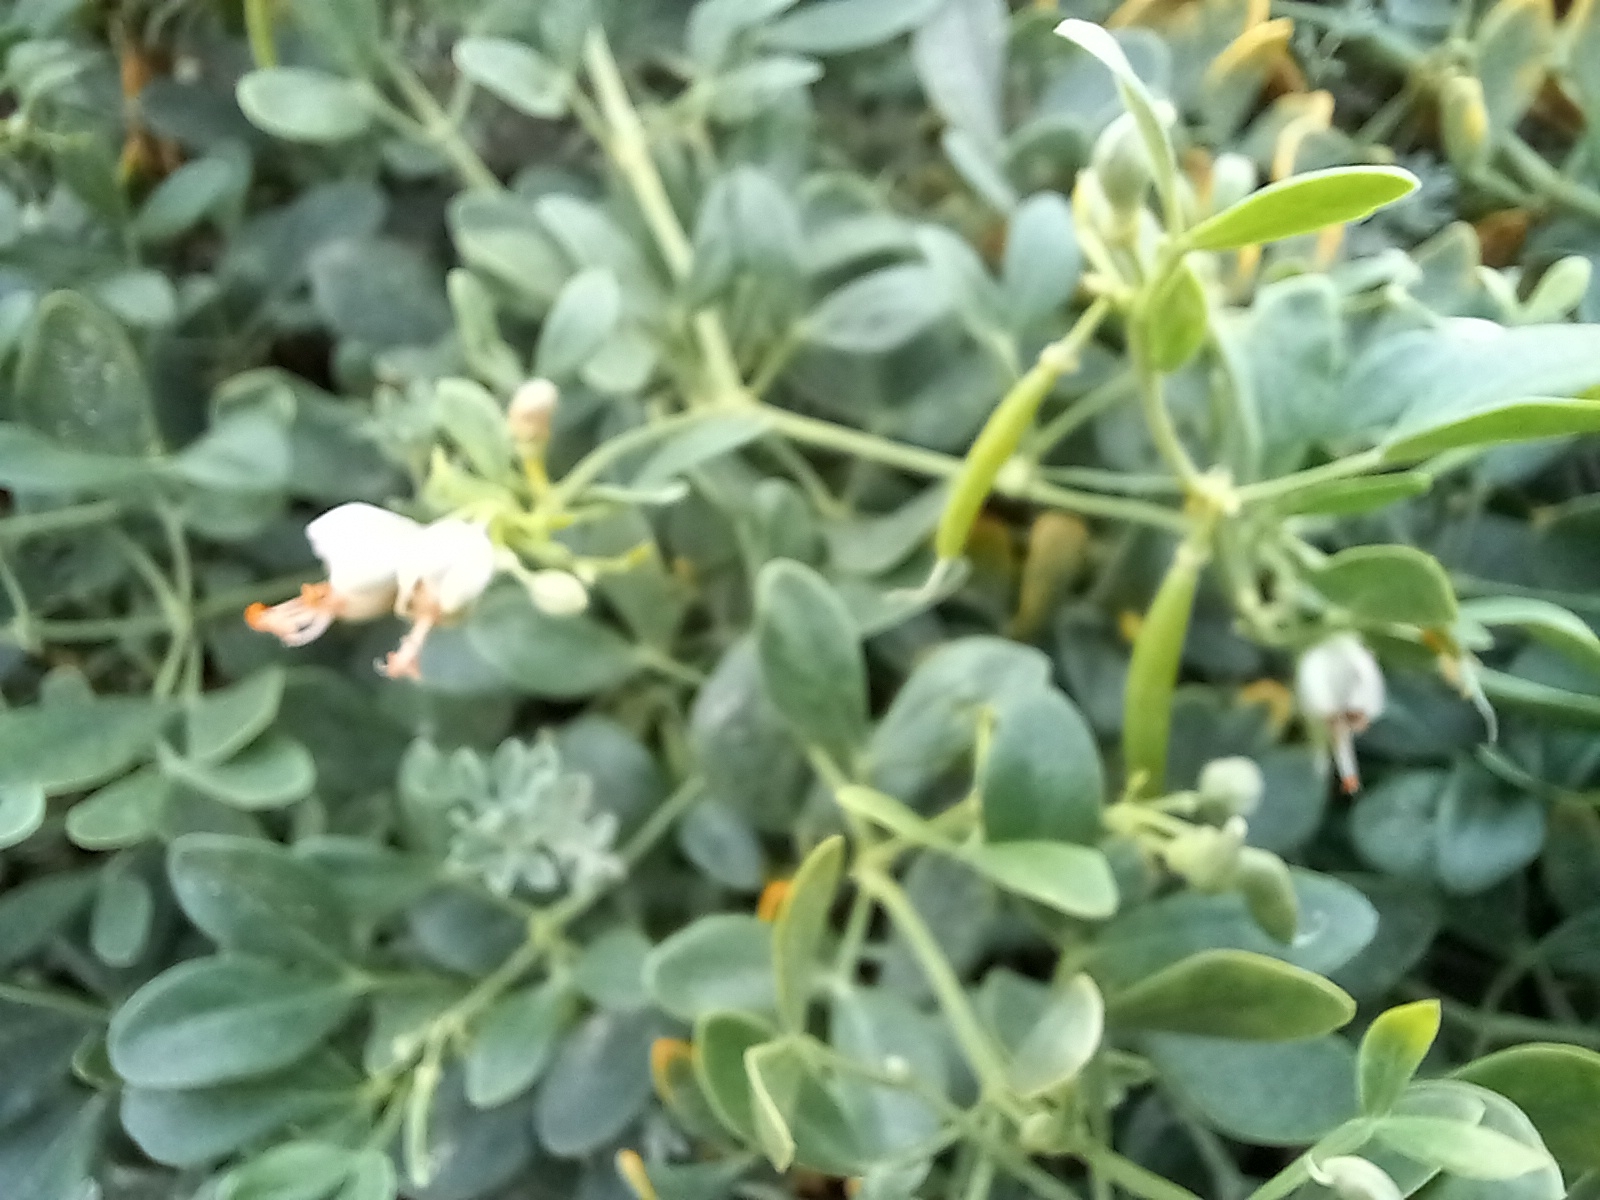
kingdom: Plantae
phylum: Tracheophyta
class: Magnoliopsida
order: Zygophyllales
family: Zygophyllaceae
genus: Zygophyllum
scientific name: Zygophyllum fabago
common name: Syrian beancaper
